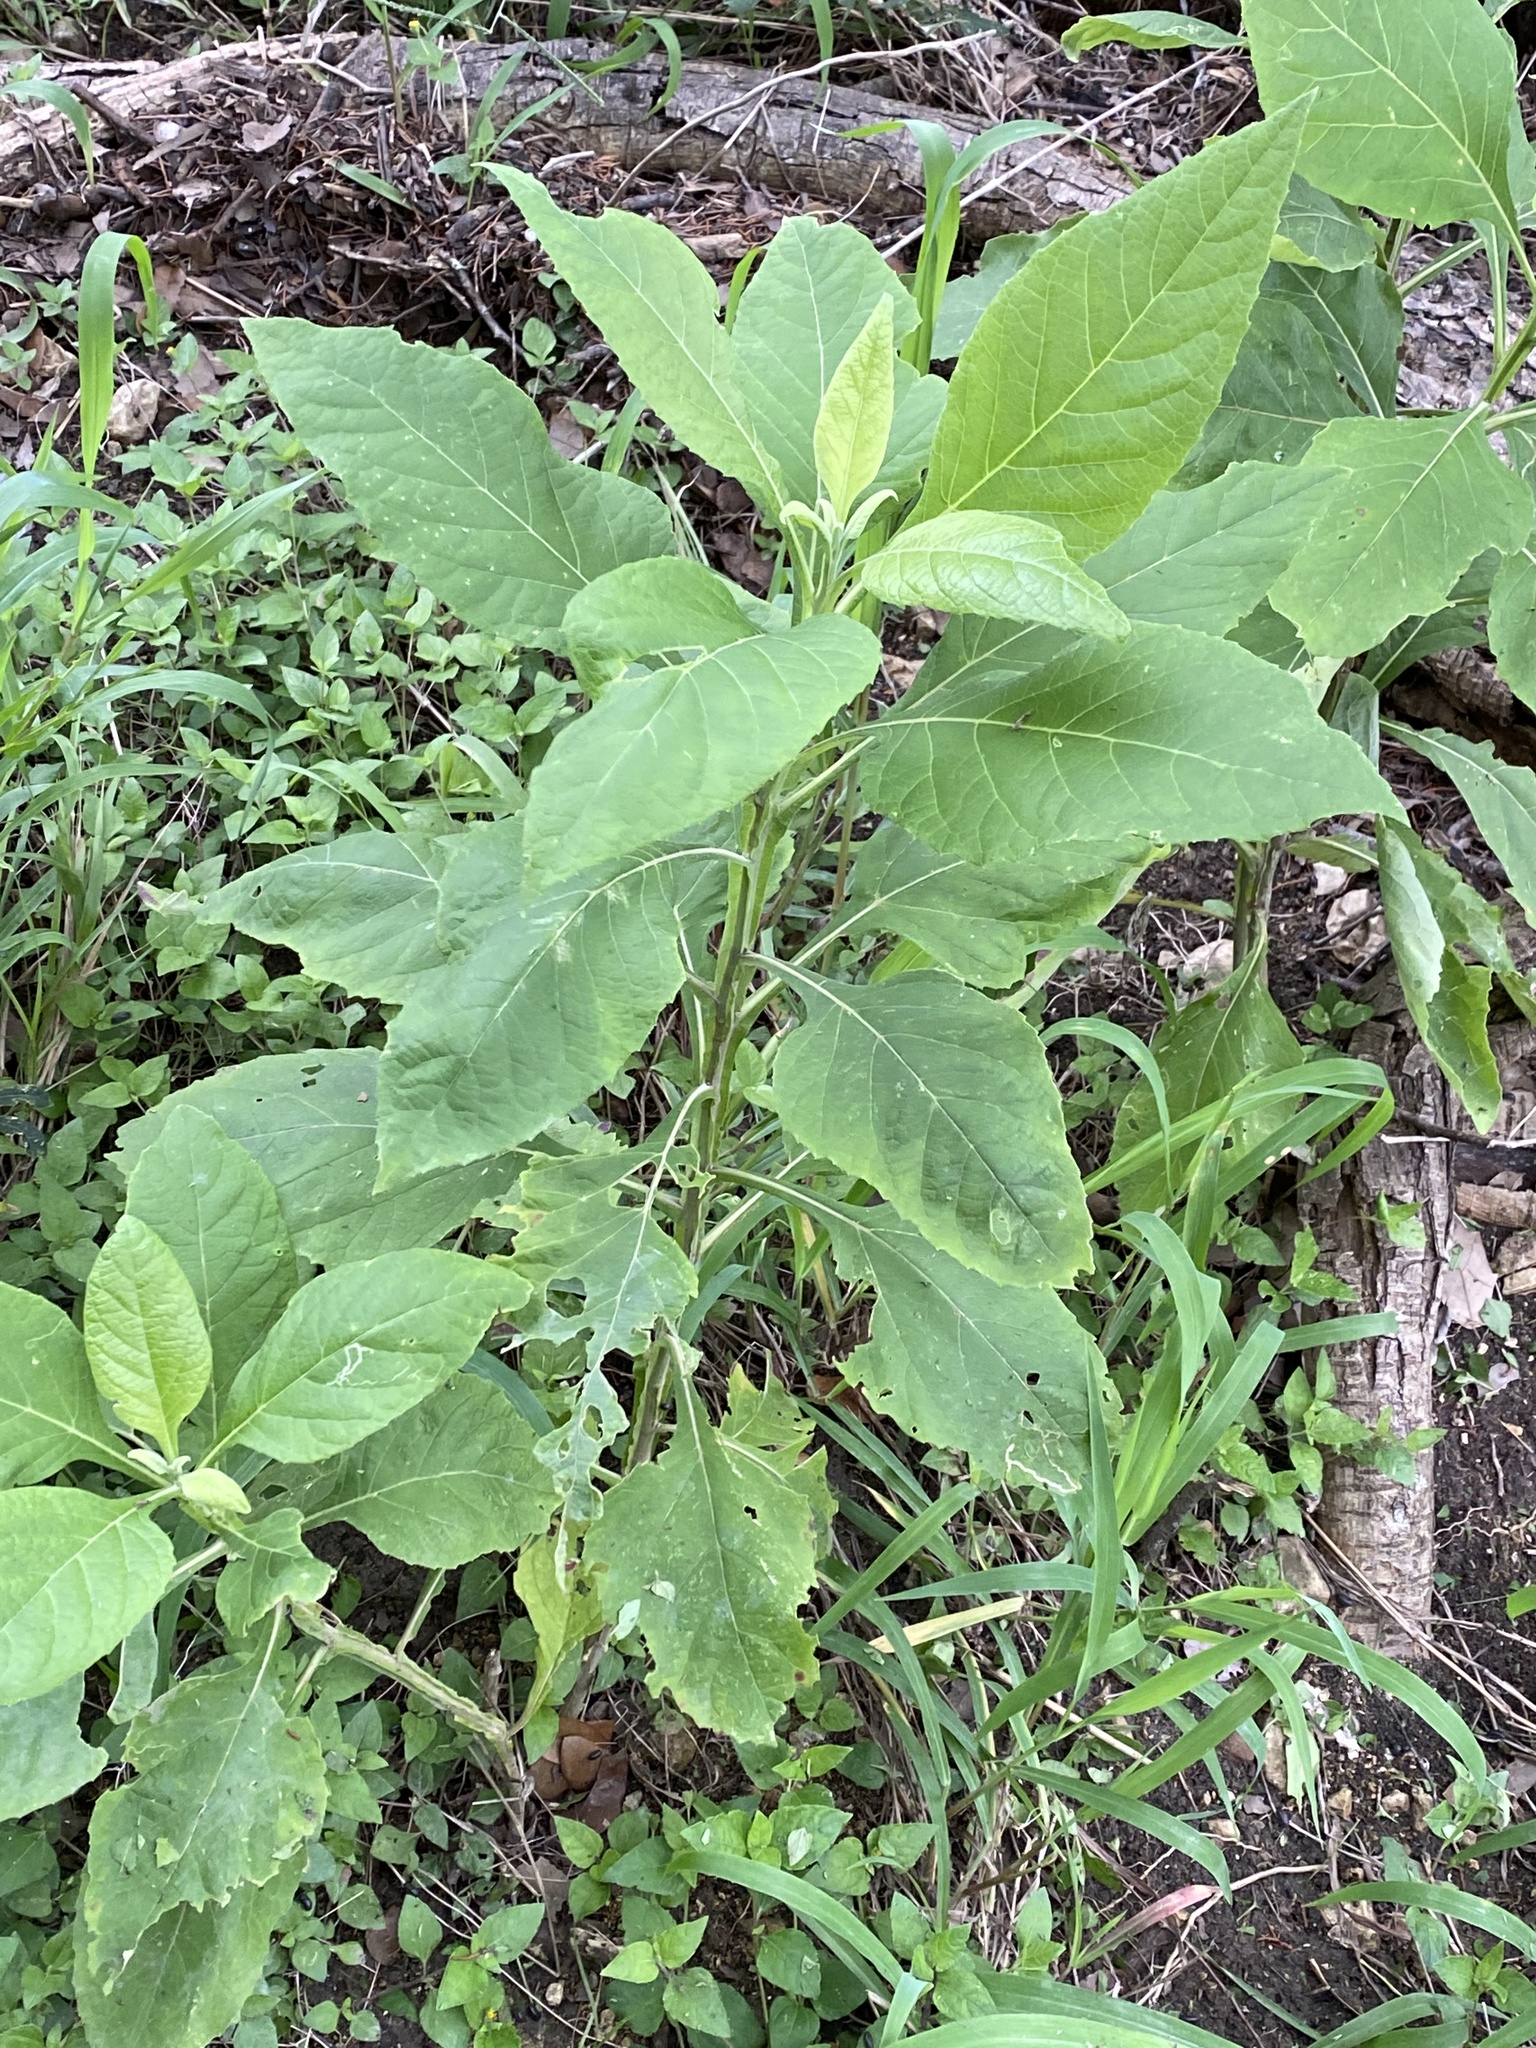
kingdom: Plantae
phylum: Tracheophyta
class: Magnoliopsida
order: Asterales
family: Asteraceae
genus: Verbesina
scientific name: Verbesina virginica
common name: Frostweed
